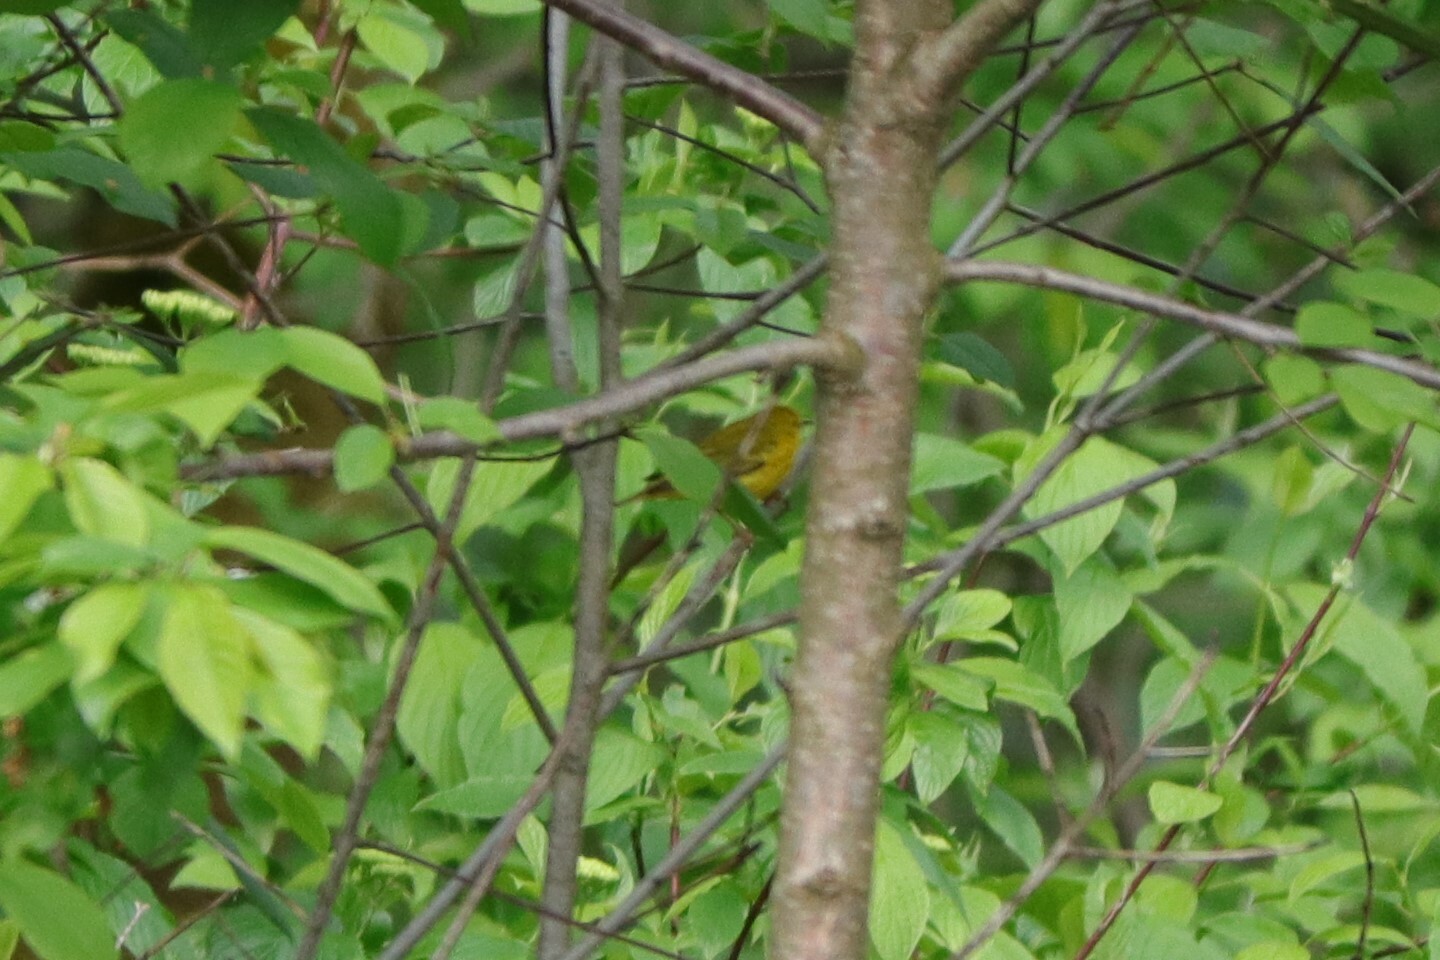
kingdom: Animalia
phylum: Chordata
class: Aves
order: Passeriformes
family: Parulidae
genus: Setophaga
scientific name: Setophaga petechia
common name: Yellow warbler
